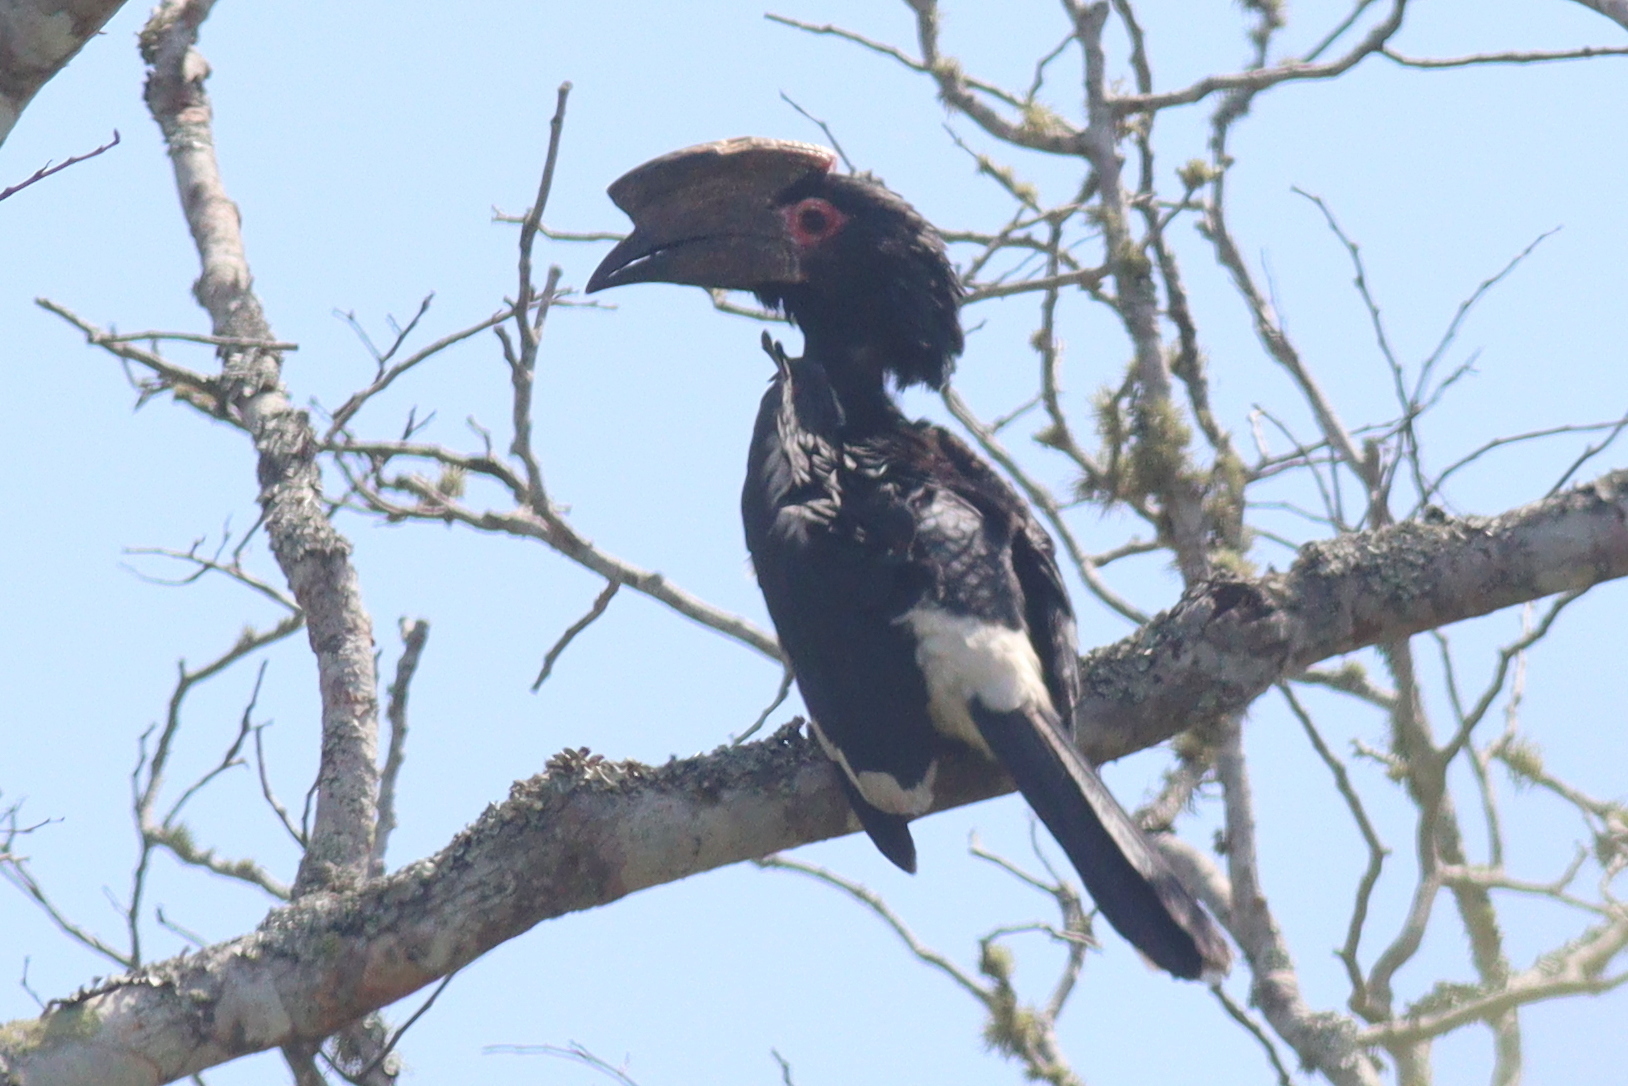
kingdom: Animalia
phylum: Chordata
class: Aves
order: Bucerotiformes
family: Bucerotidae
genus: Bycanistes
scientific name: Bycanistes bucinator
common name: Trumpeter hornbill
